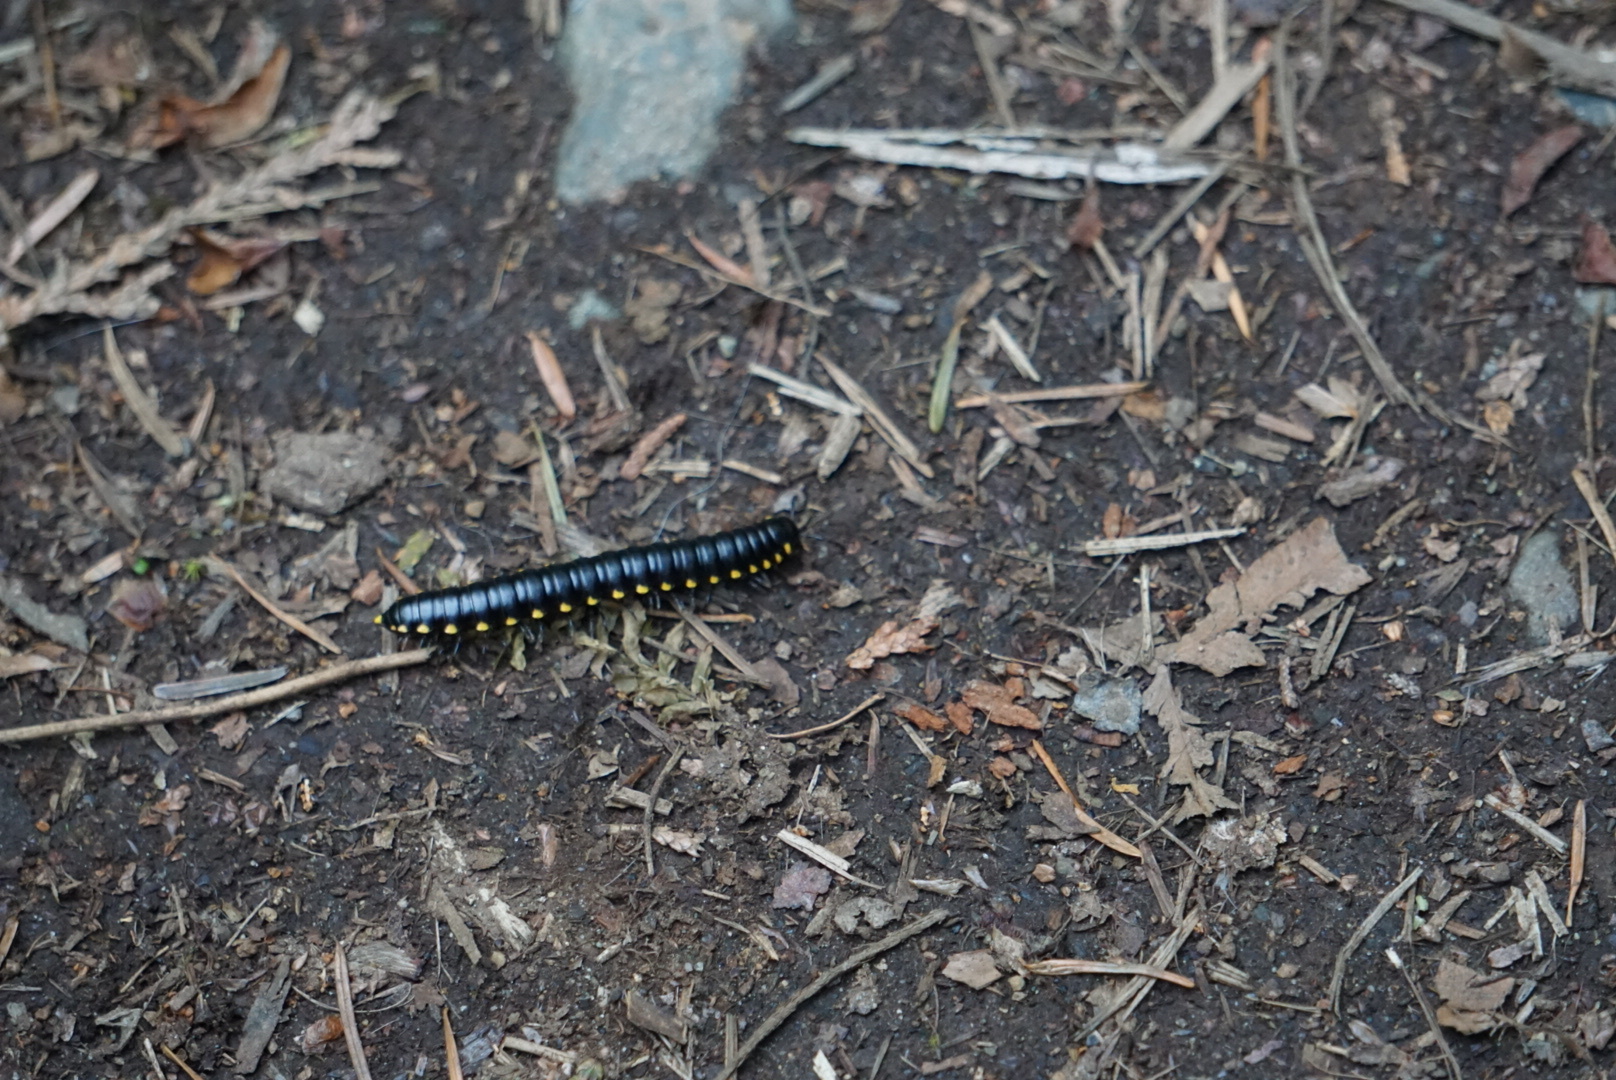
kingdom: Animalia
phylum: Arthropoda
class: Diplopoda
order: Polydesmida
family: Xystodesmidae
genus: Harpaphe
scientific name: Harpaphe haydeniana
